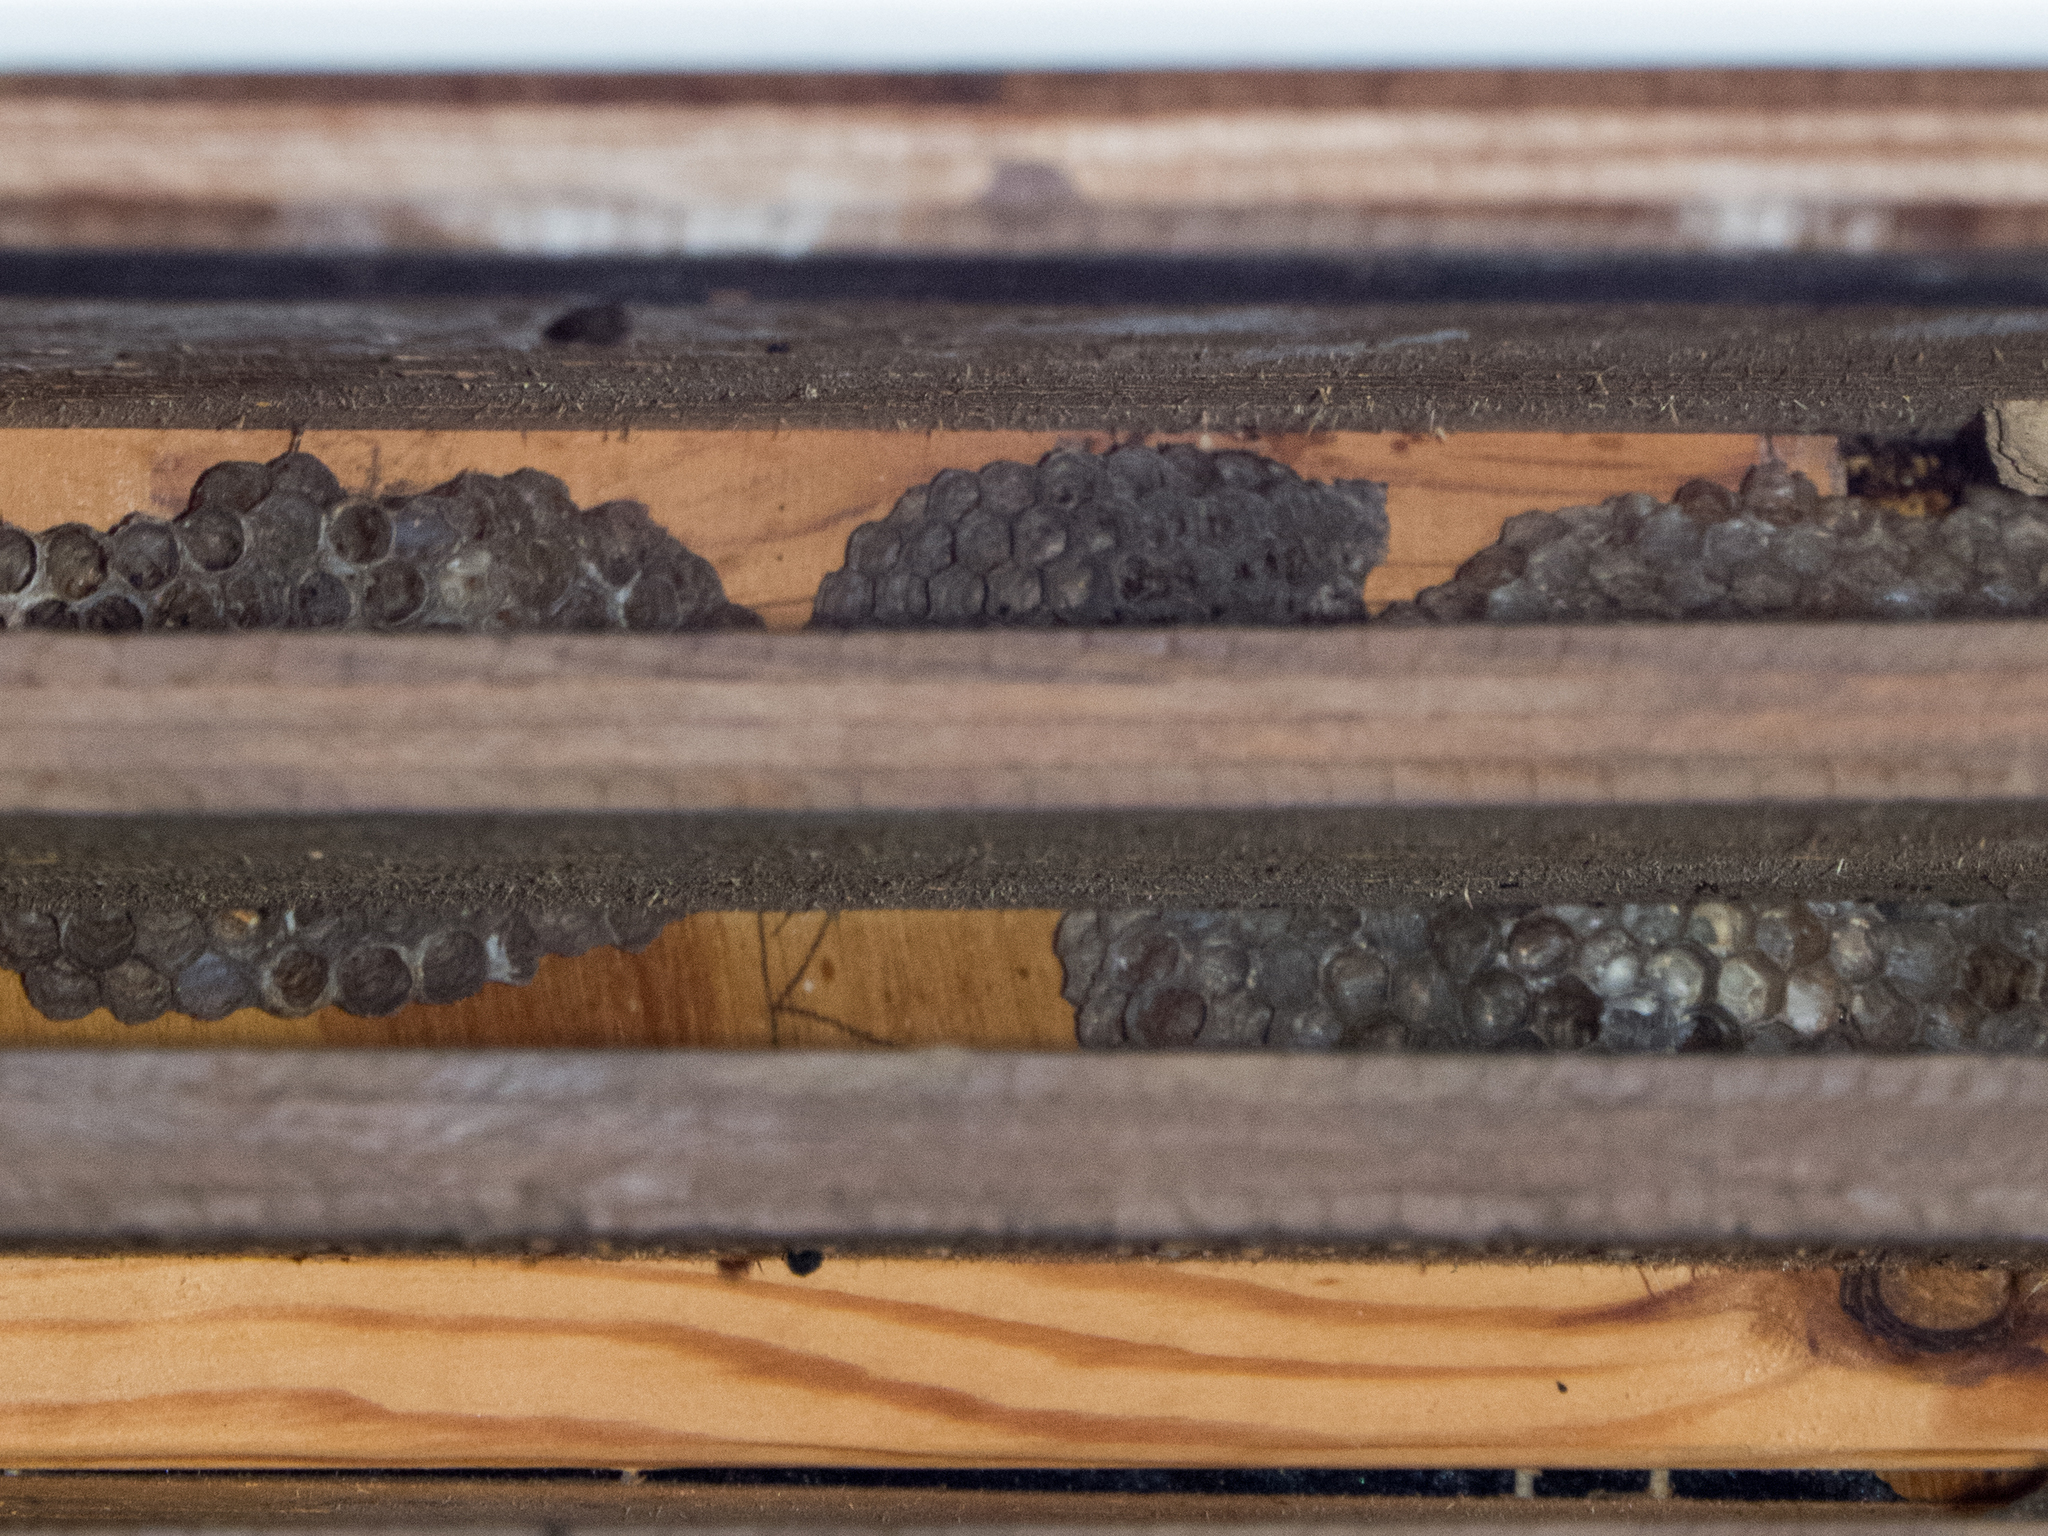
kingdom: Animalia
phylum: Arthropoda
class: Insecta
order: Hymenoptera
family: Eumenidae
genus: Polistes
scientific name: Polistes
